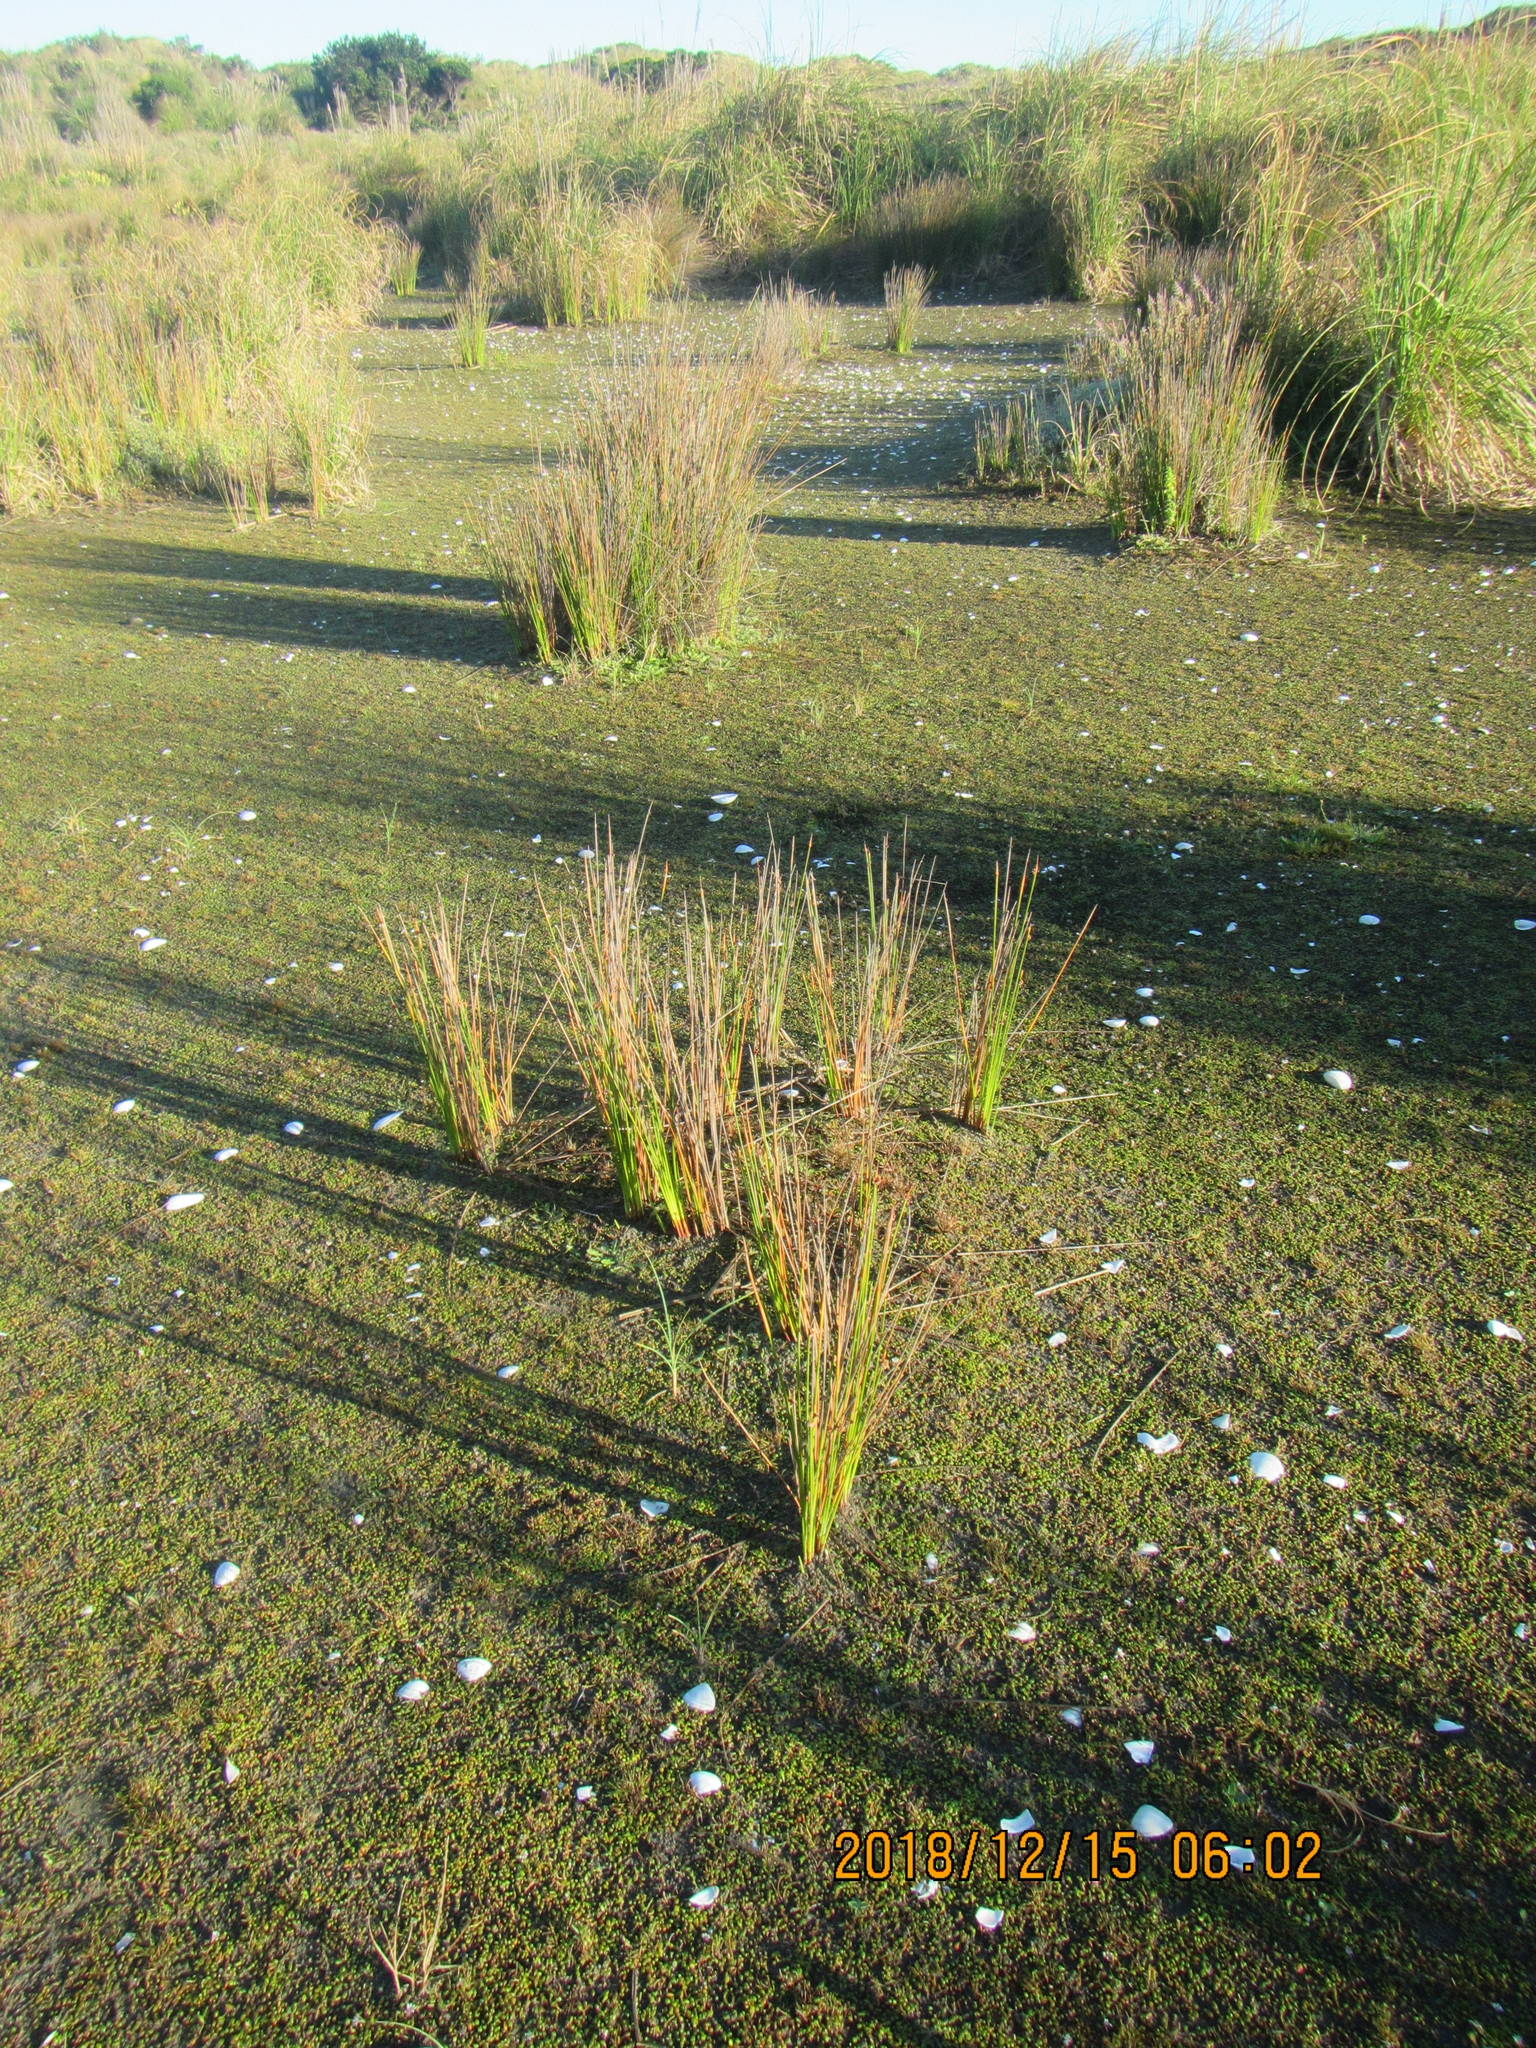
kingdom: Plantae
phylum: Tracheophyta
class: Liliopsida
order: Poales
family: Juncaceae
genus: Juncus
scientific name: Juncus bufonius
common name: Toad rush
